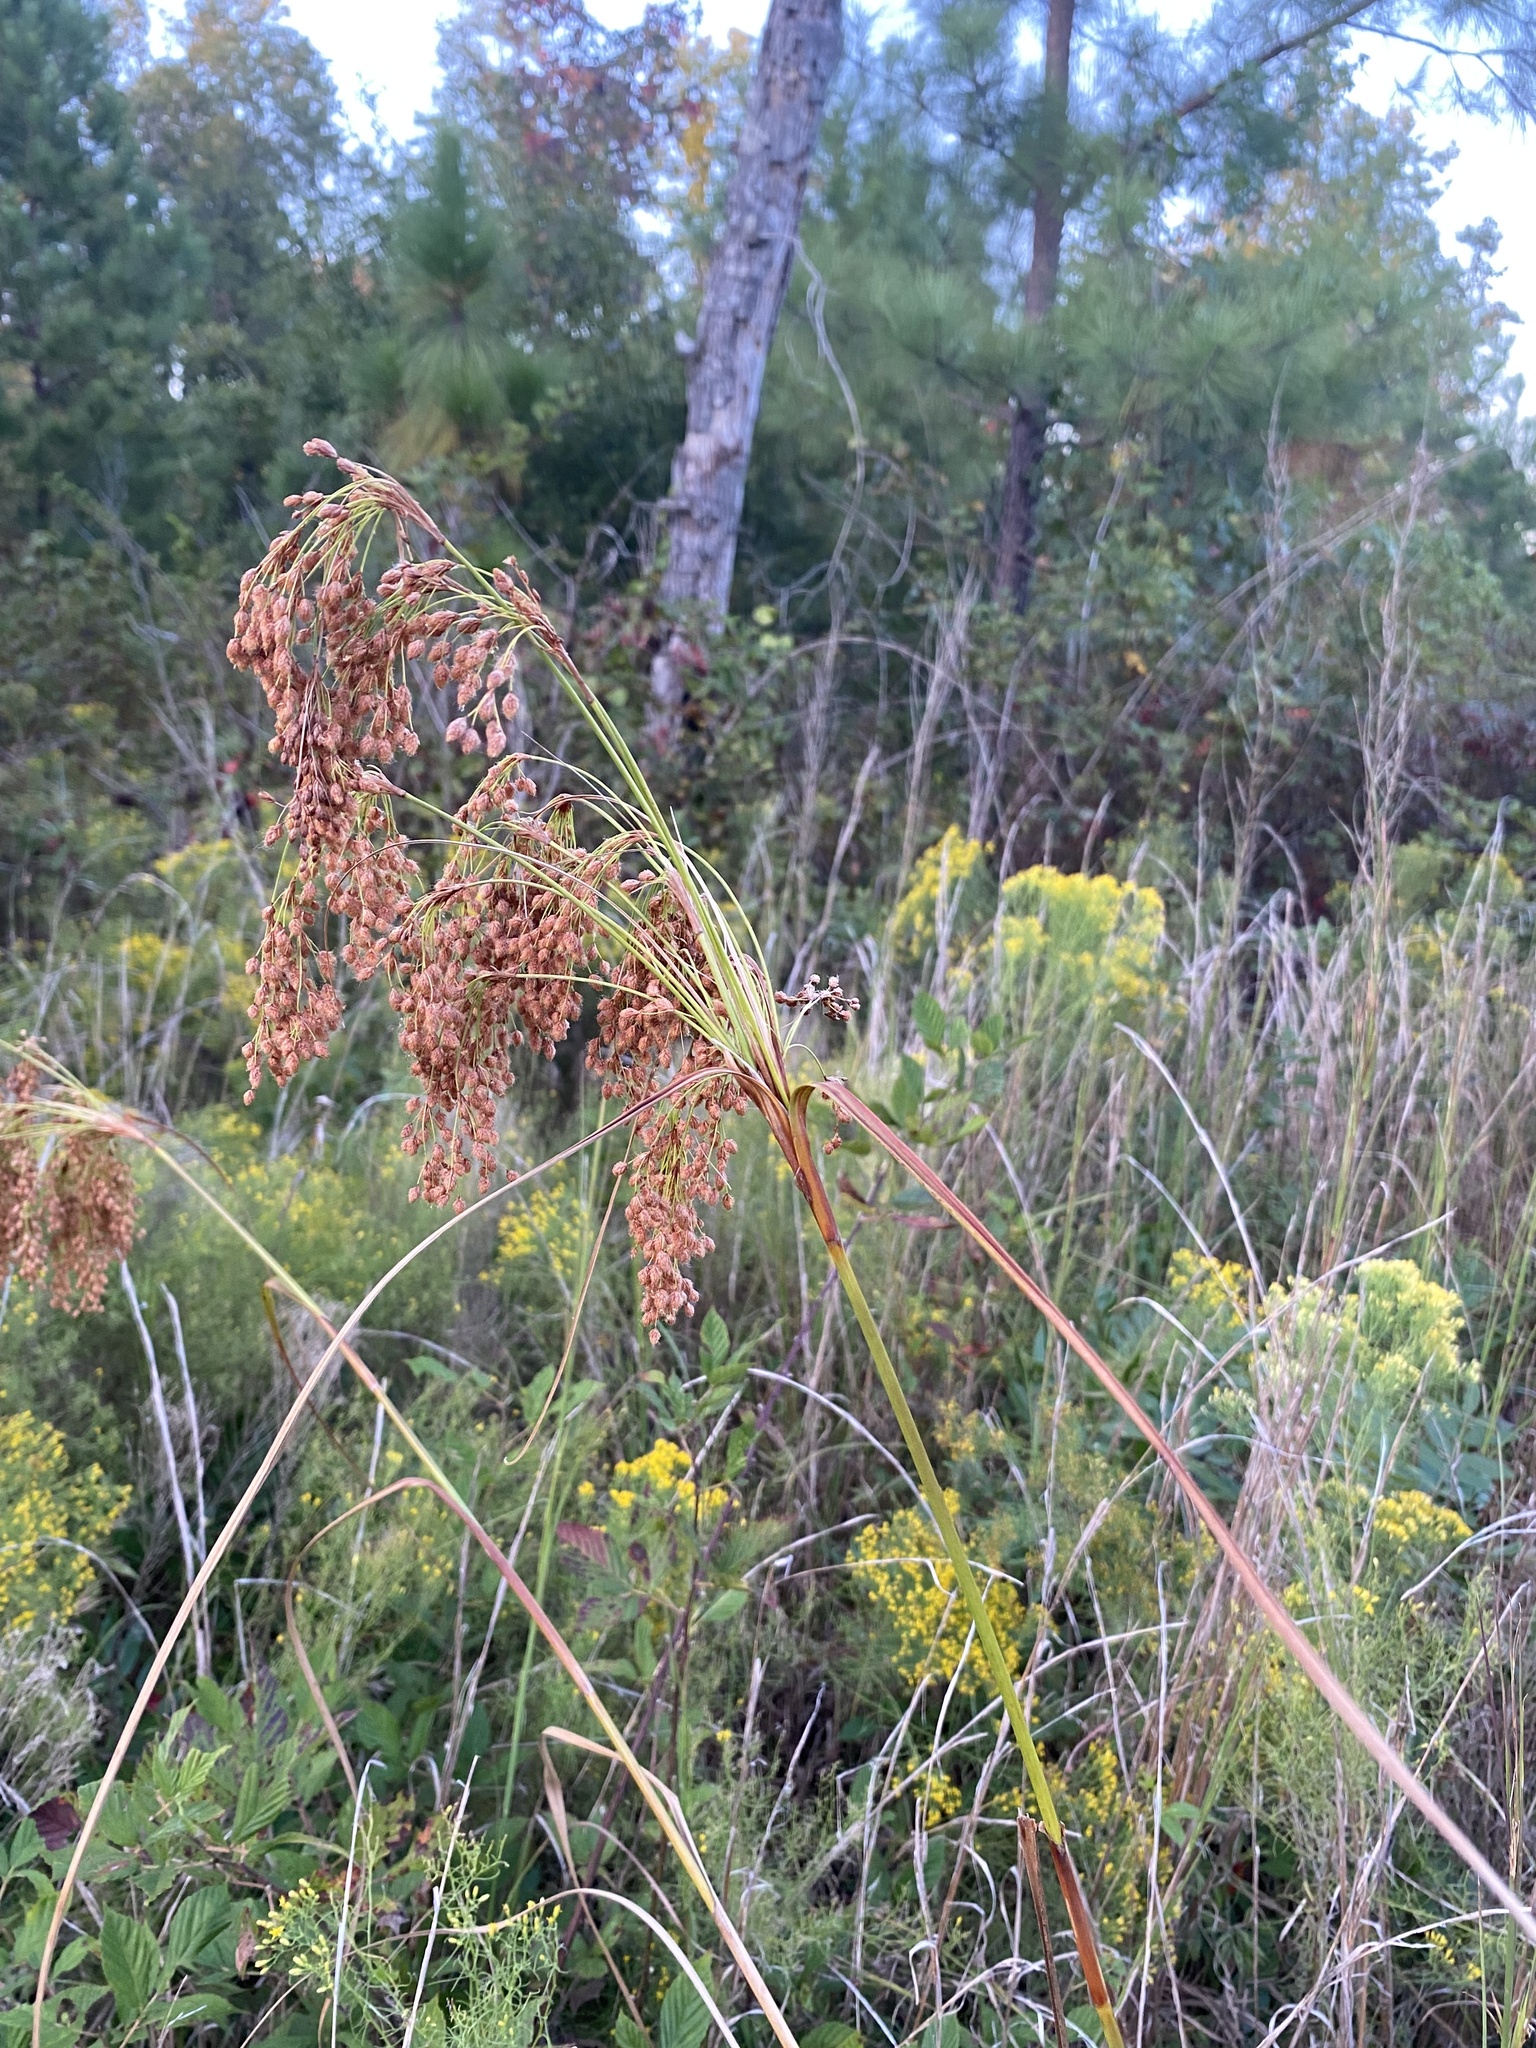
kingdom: Plantae
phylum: Tracheophyta
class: Liliopsida
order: Poales
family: Cyperaceae
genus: Scirpus
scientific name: Scirpus cyperinus
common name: Black-sheathed bulrush
